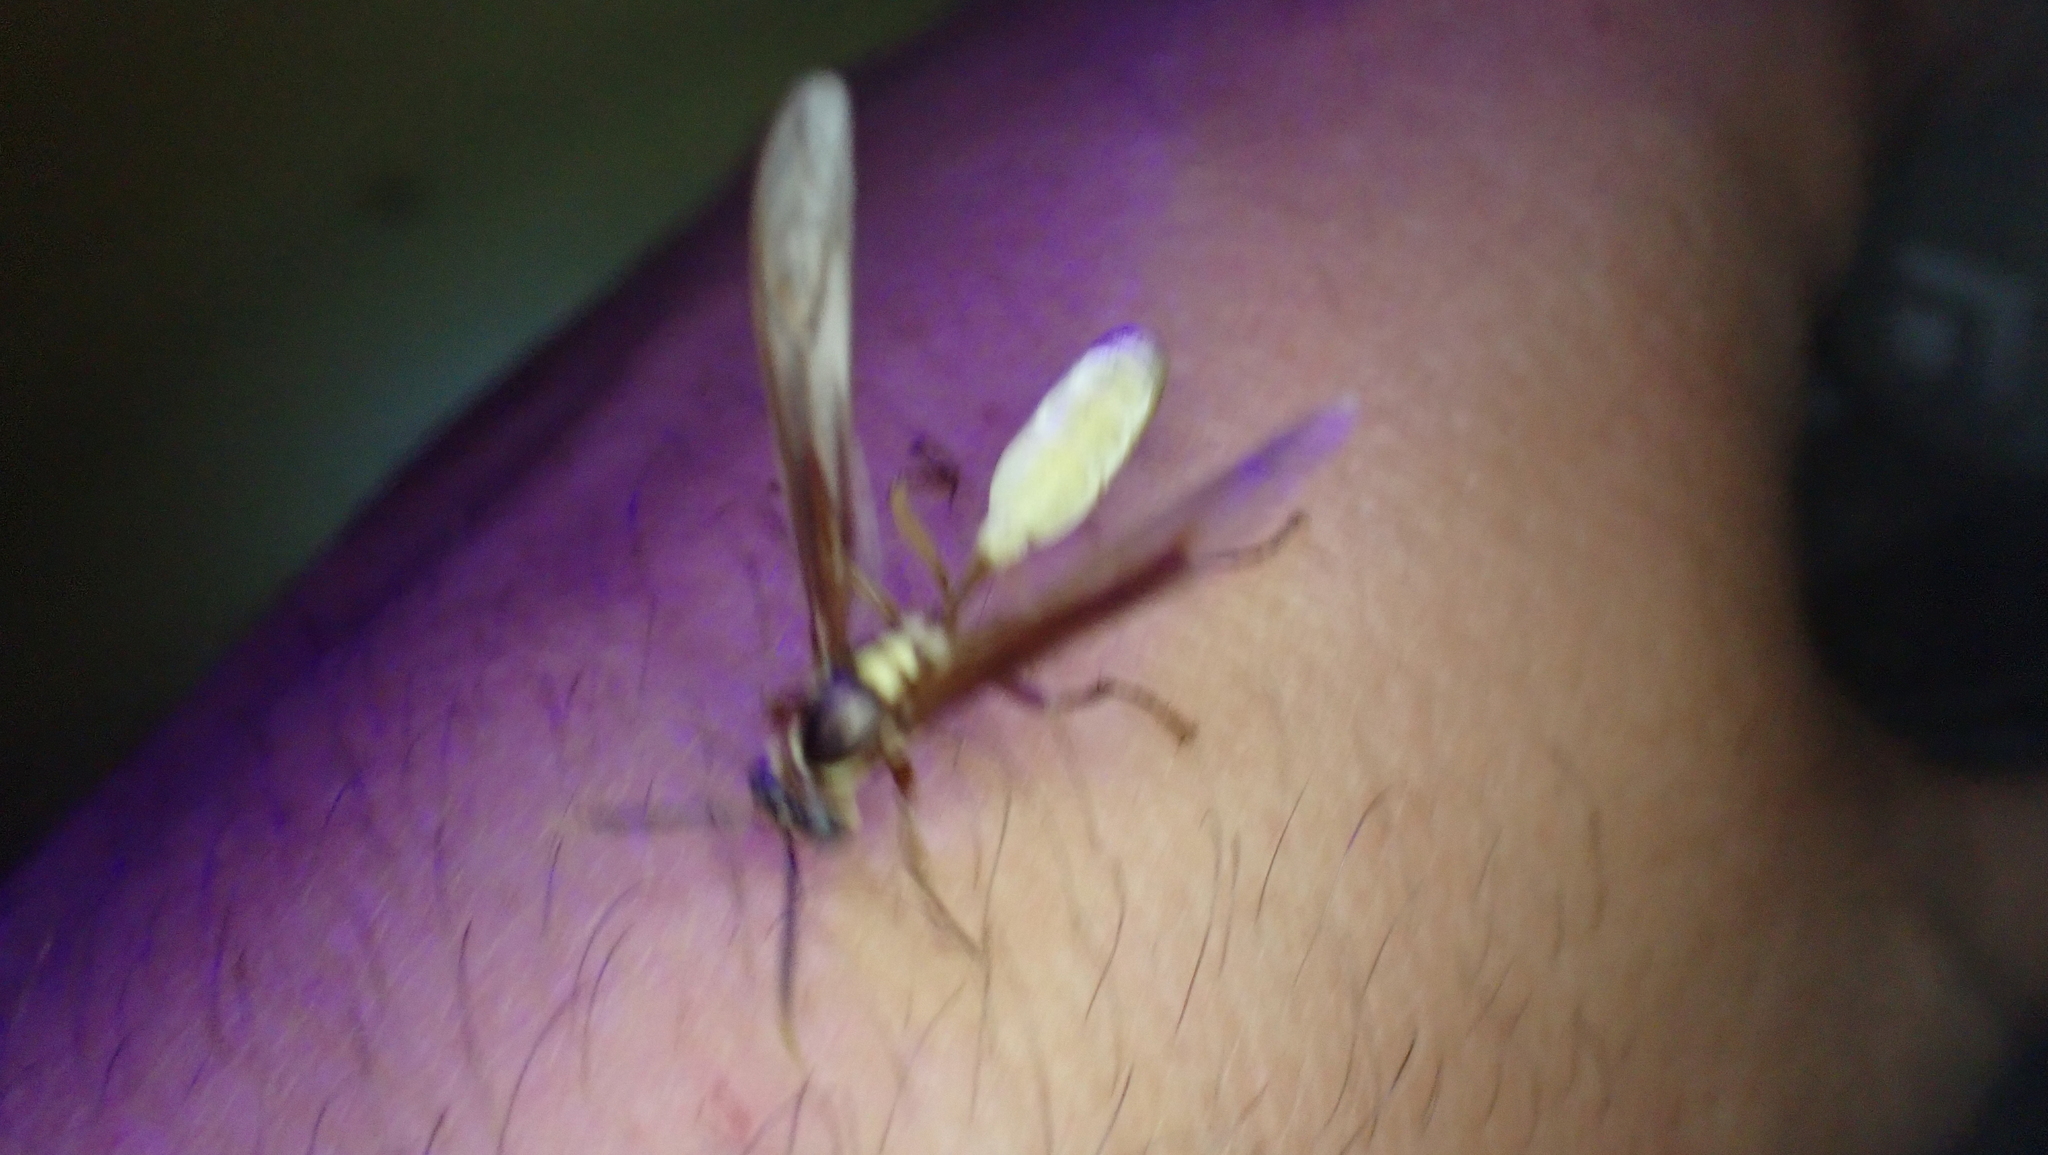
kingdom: Animalia
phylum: Arthropoda
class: Insecta
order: Hymenoptera
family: Vespidae
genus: Apoica
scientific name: Apoica pallens
